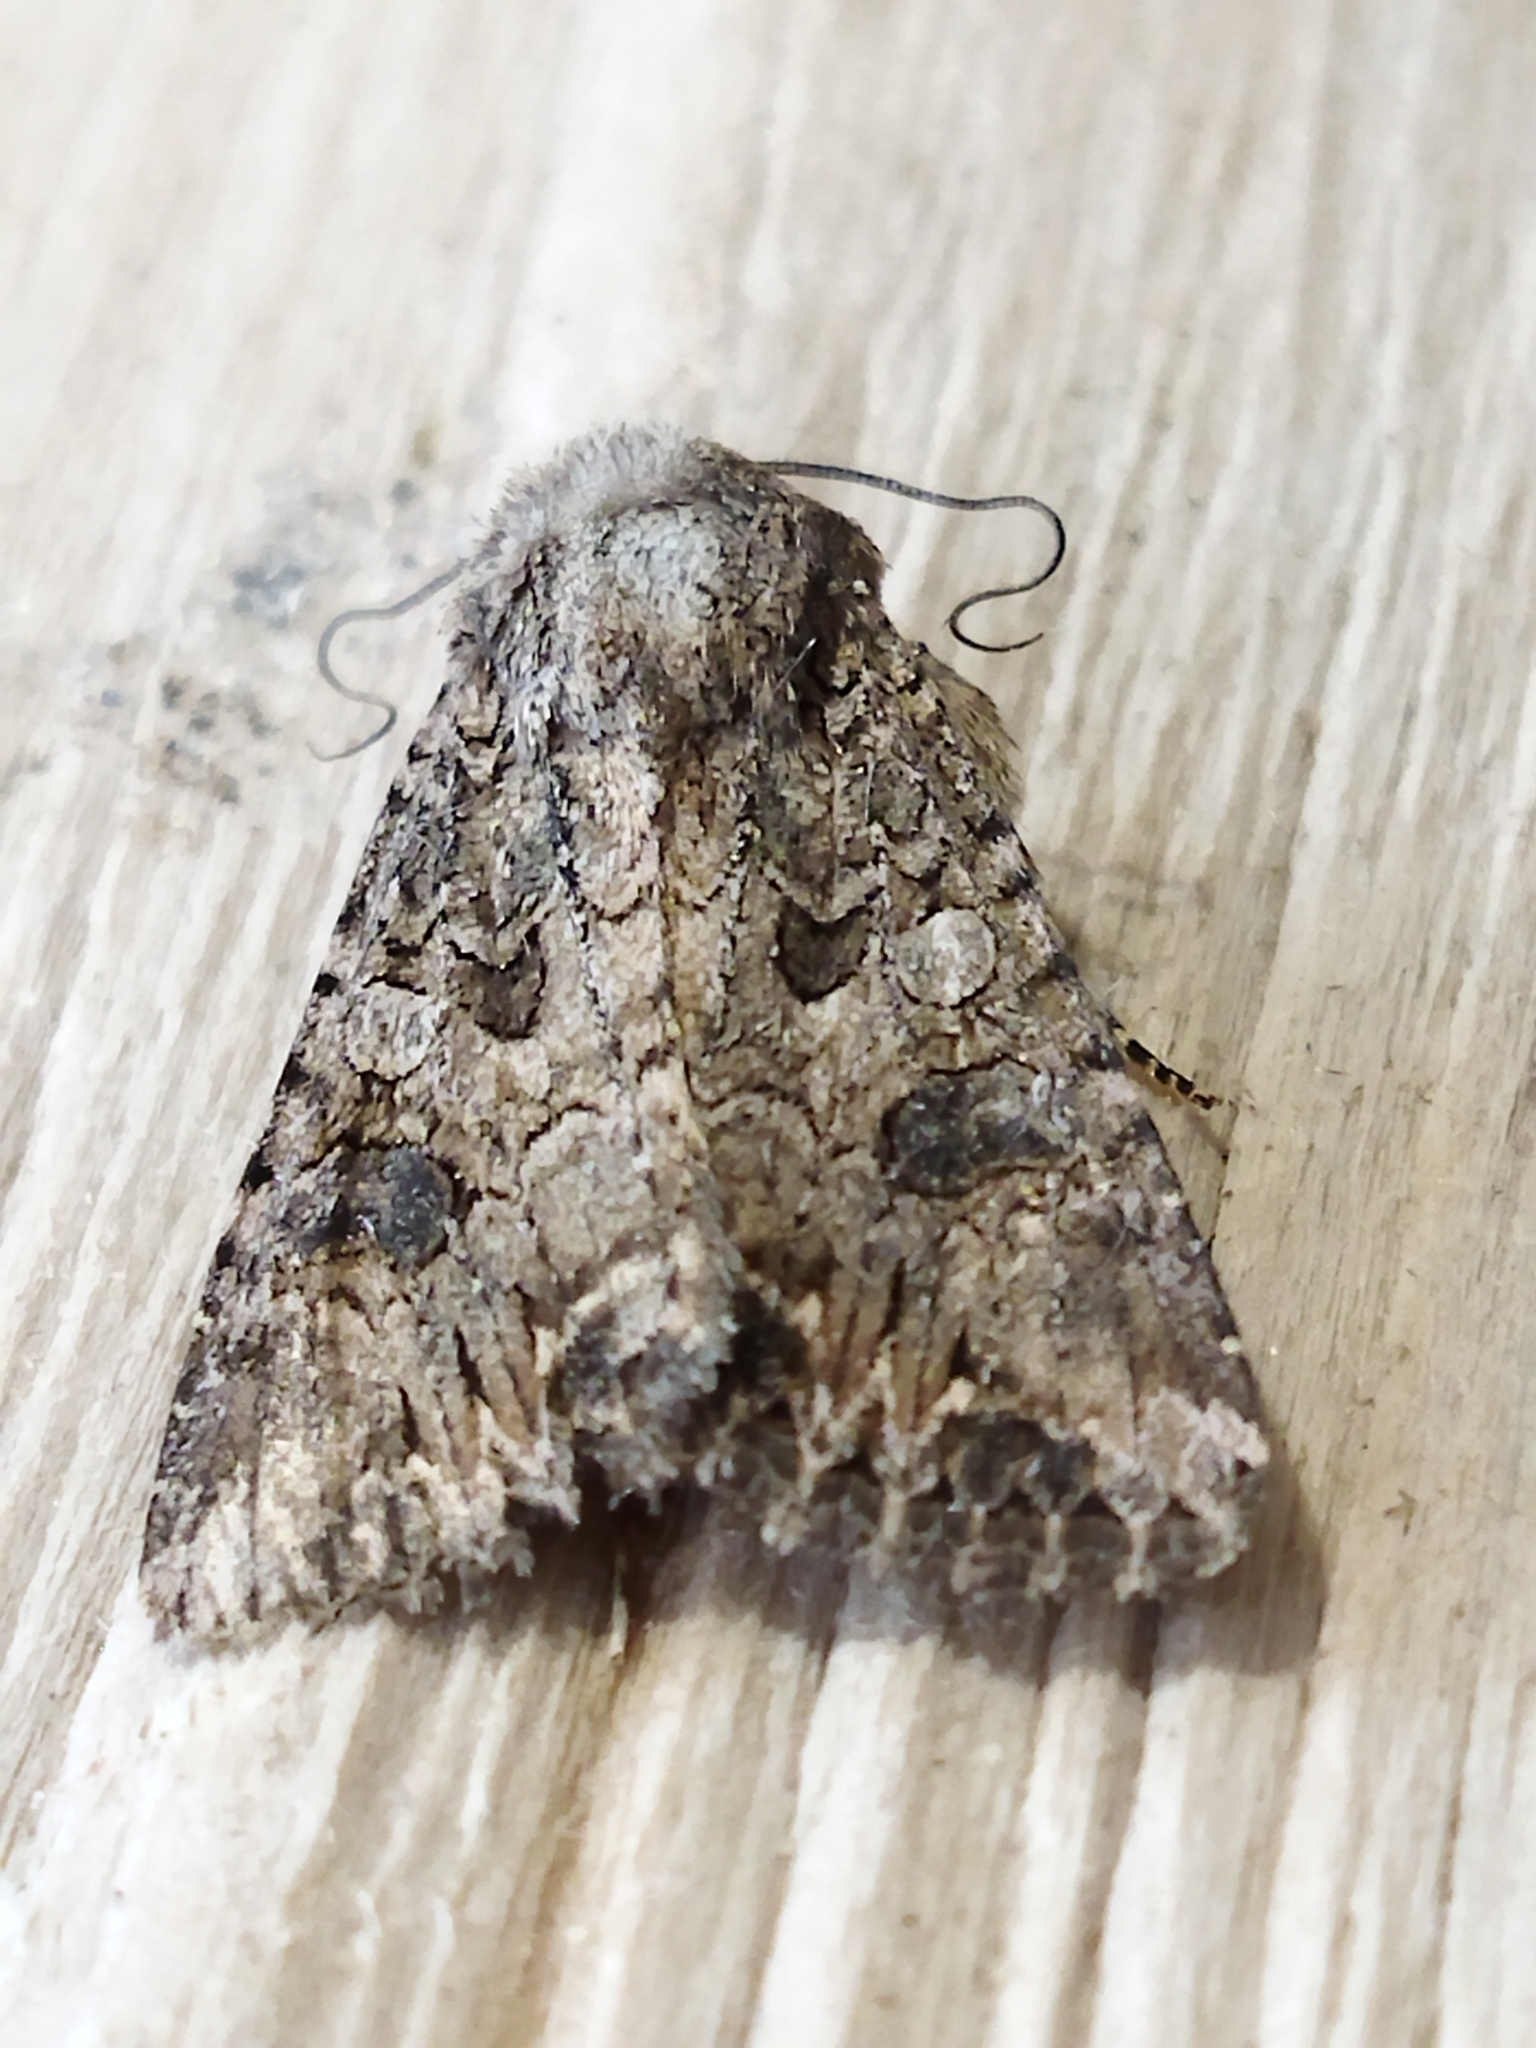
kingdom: Animalia
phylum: Arthropoda
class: Insecta
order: Lepidoptera
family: Noctuidae
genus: Anarta
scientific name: Anarta trifolii
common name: Clover cutworm moth
